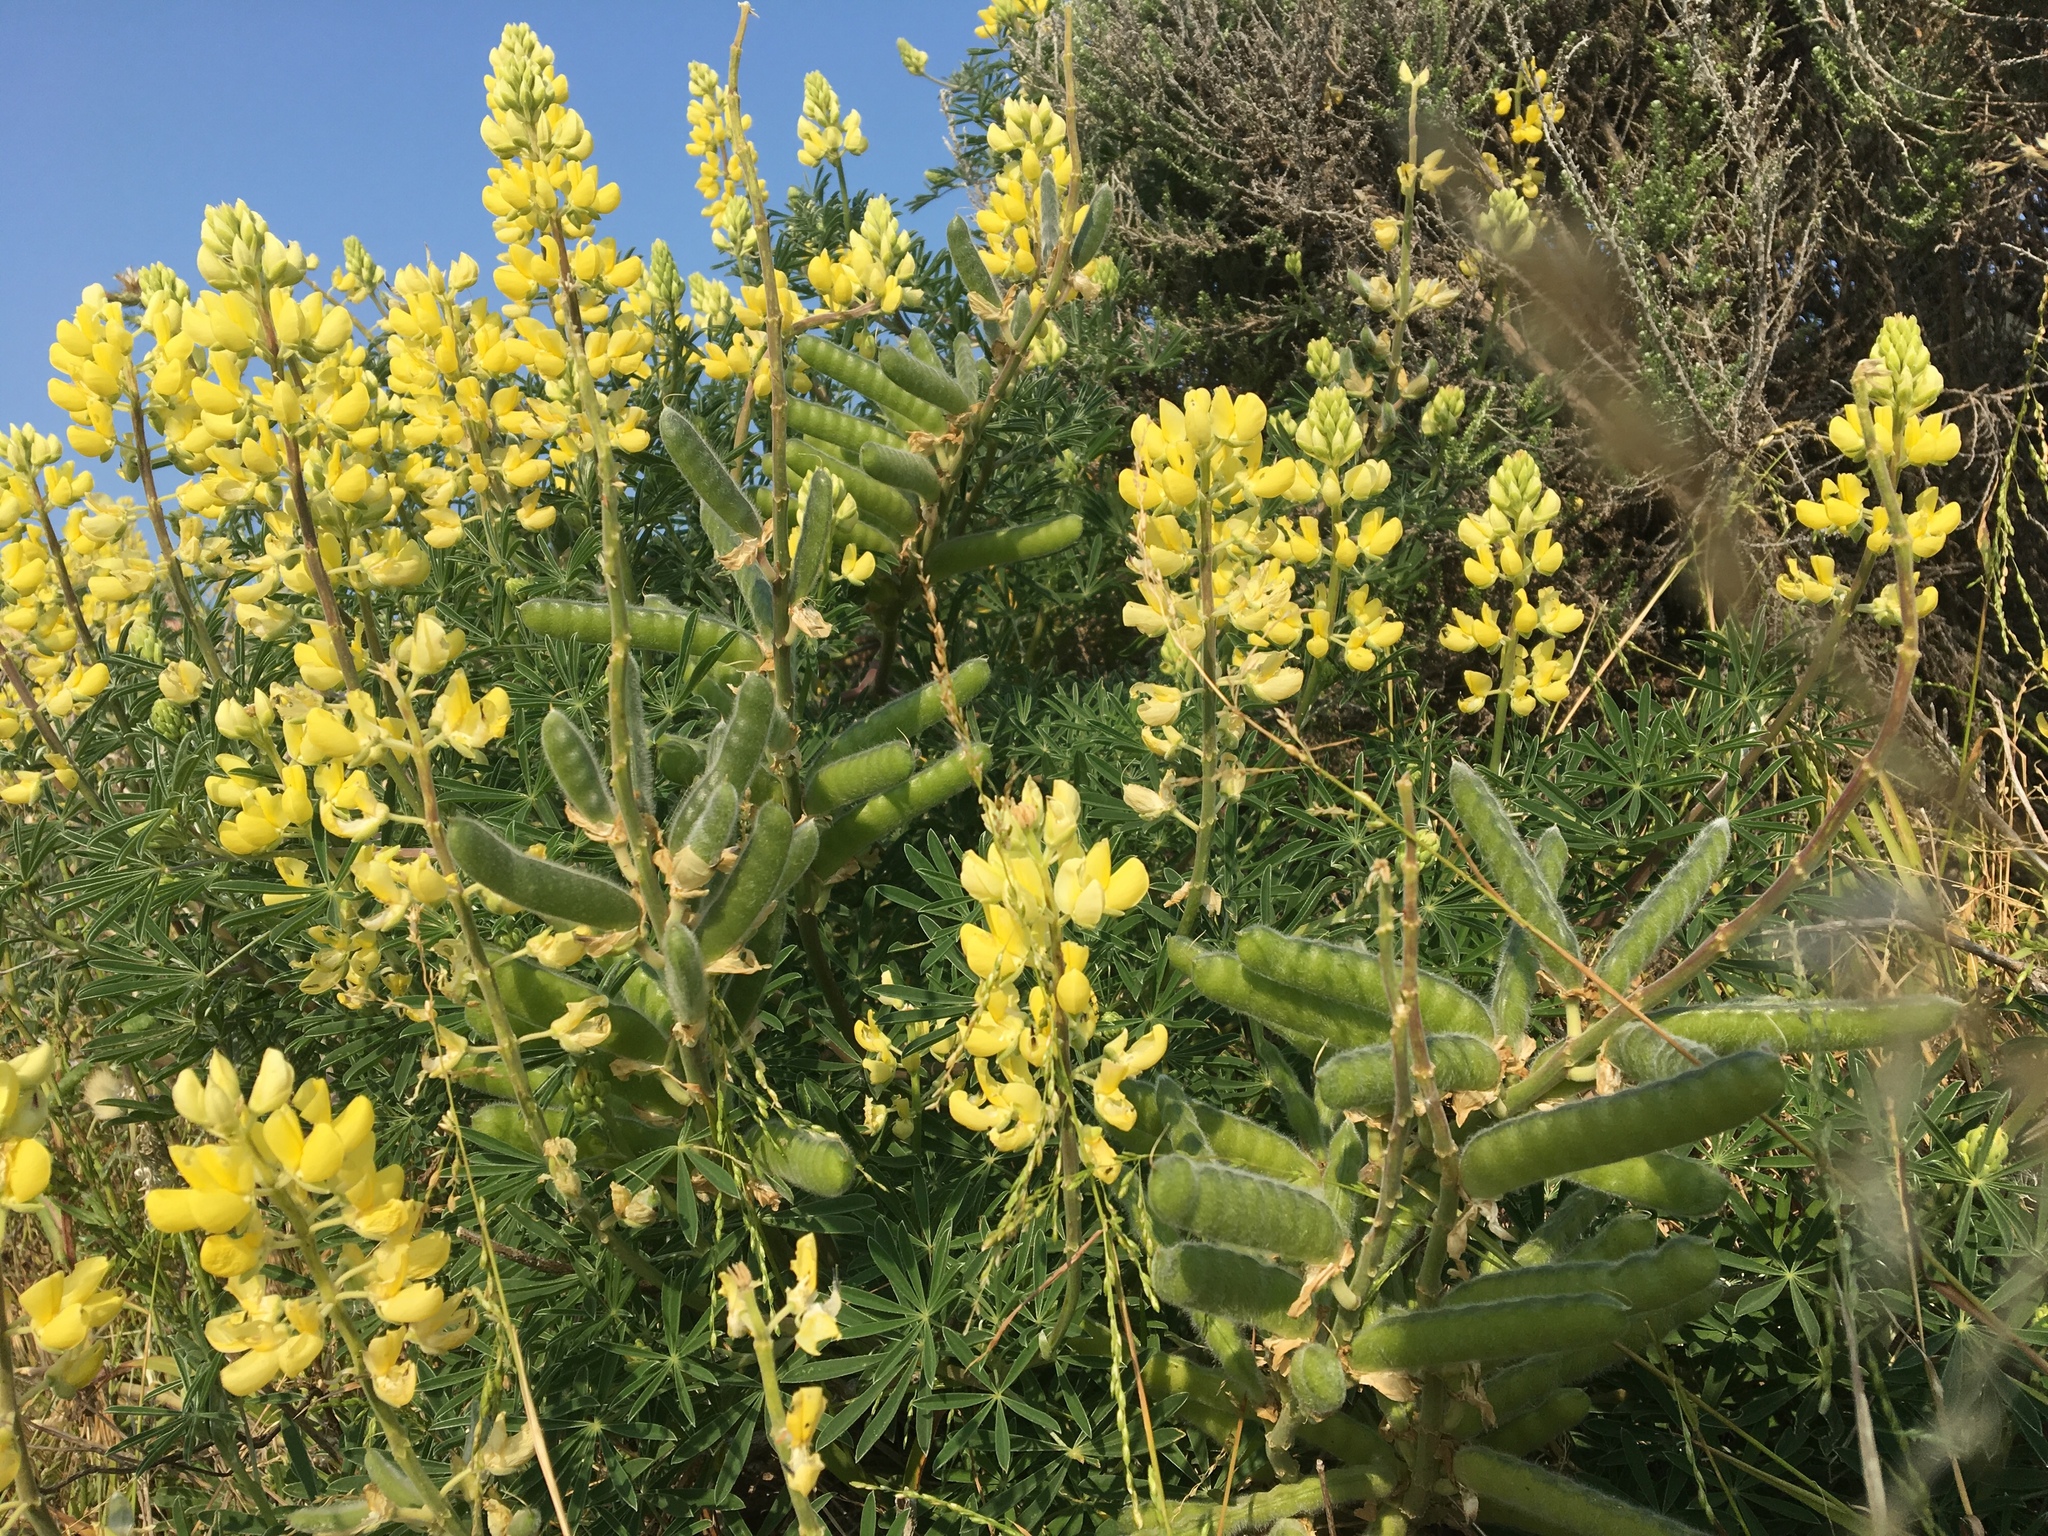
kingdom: Plantae
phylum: Tracheophyta
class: Magnoliopsida
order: Fabales
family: Fabaceae
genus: Lupinus
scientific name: Lupinus arboreus
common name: Yellow bush lupine
